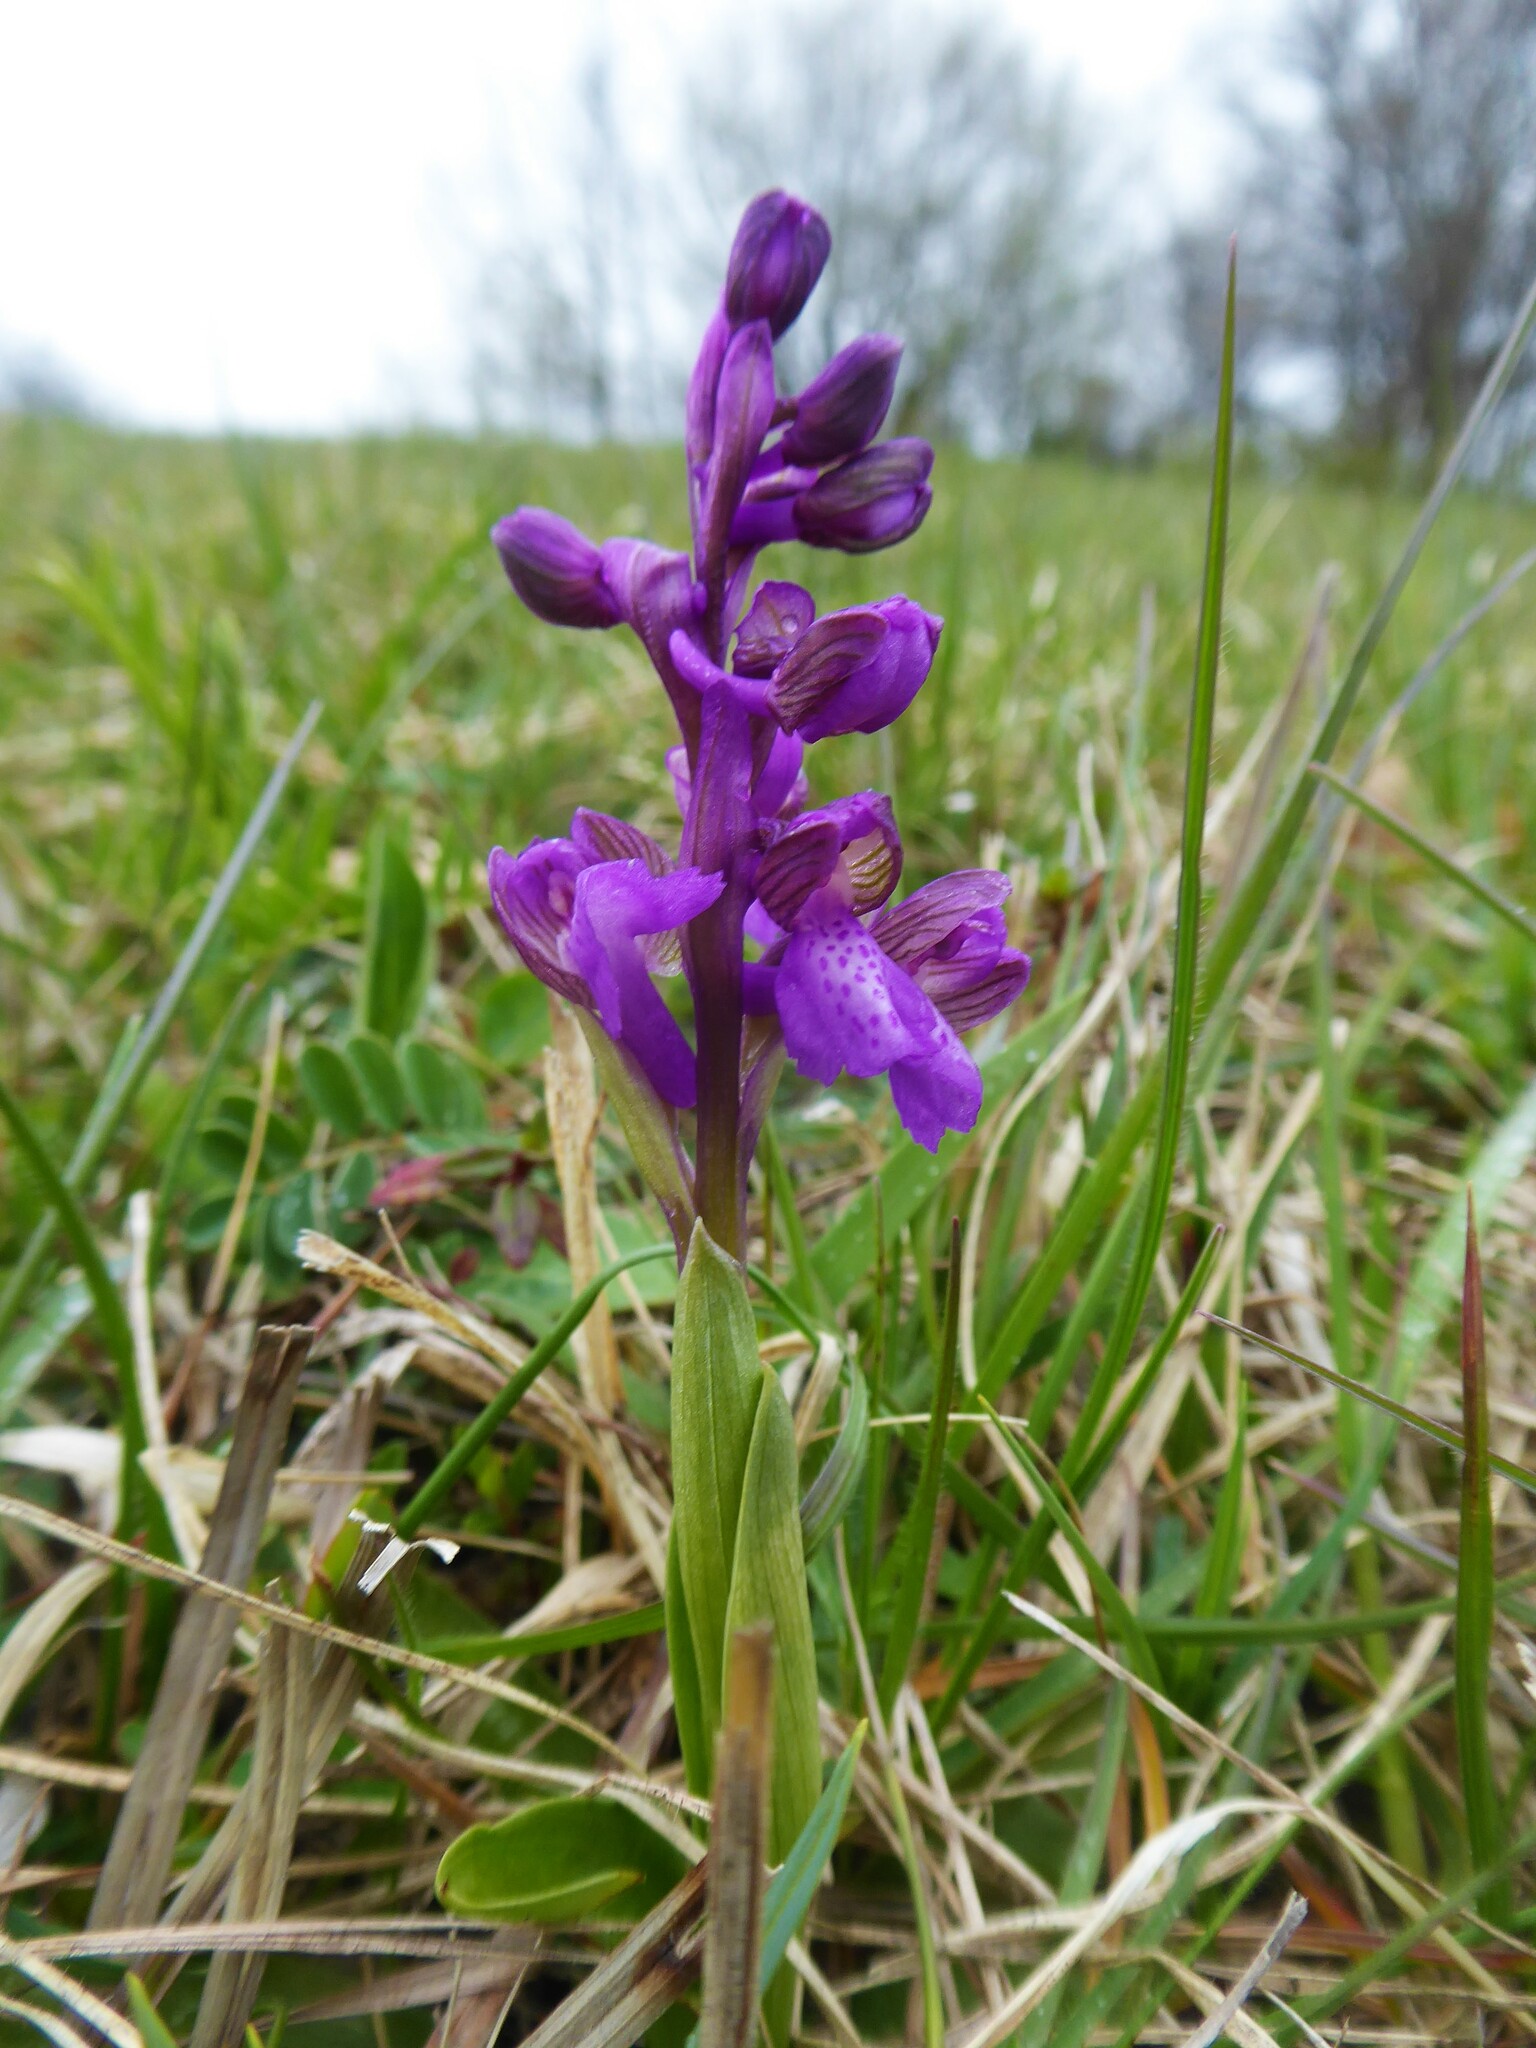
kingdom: Plantae
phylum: Tracheophyta
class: Liliopsida
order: Asparagales
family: Orchidaceae
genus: Anacamptis
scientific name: Anacamptis morio
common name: Green-winged orchid
